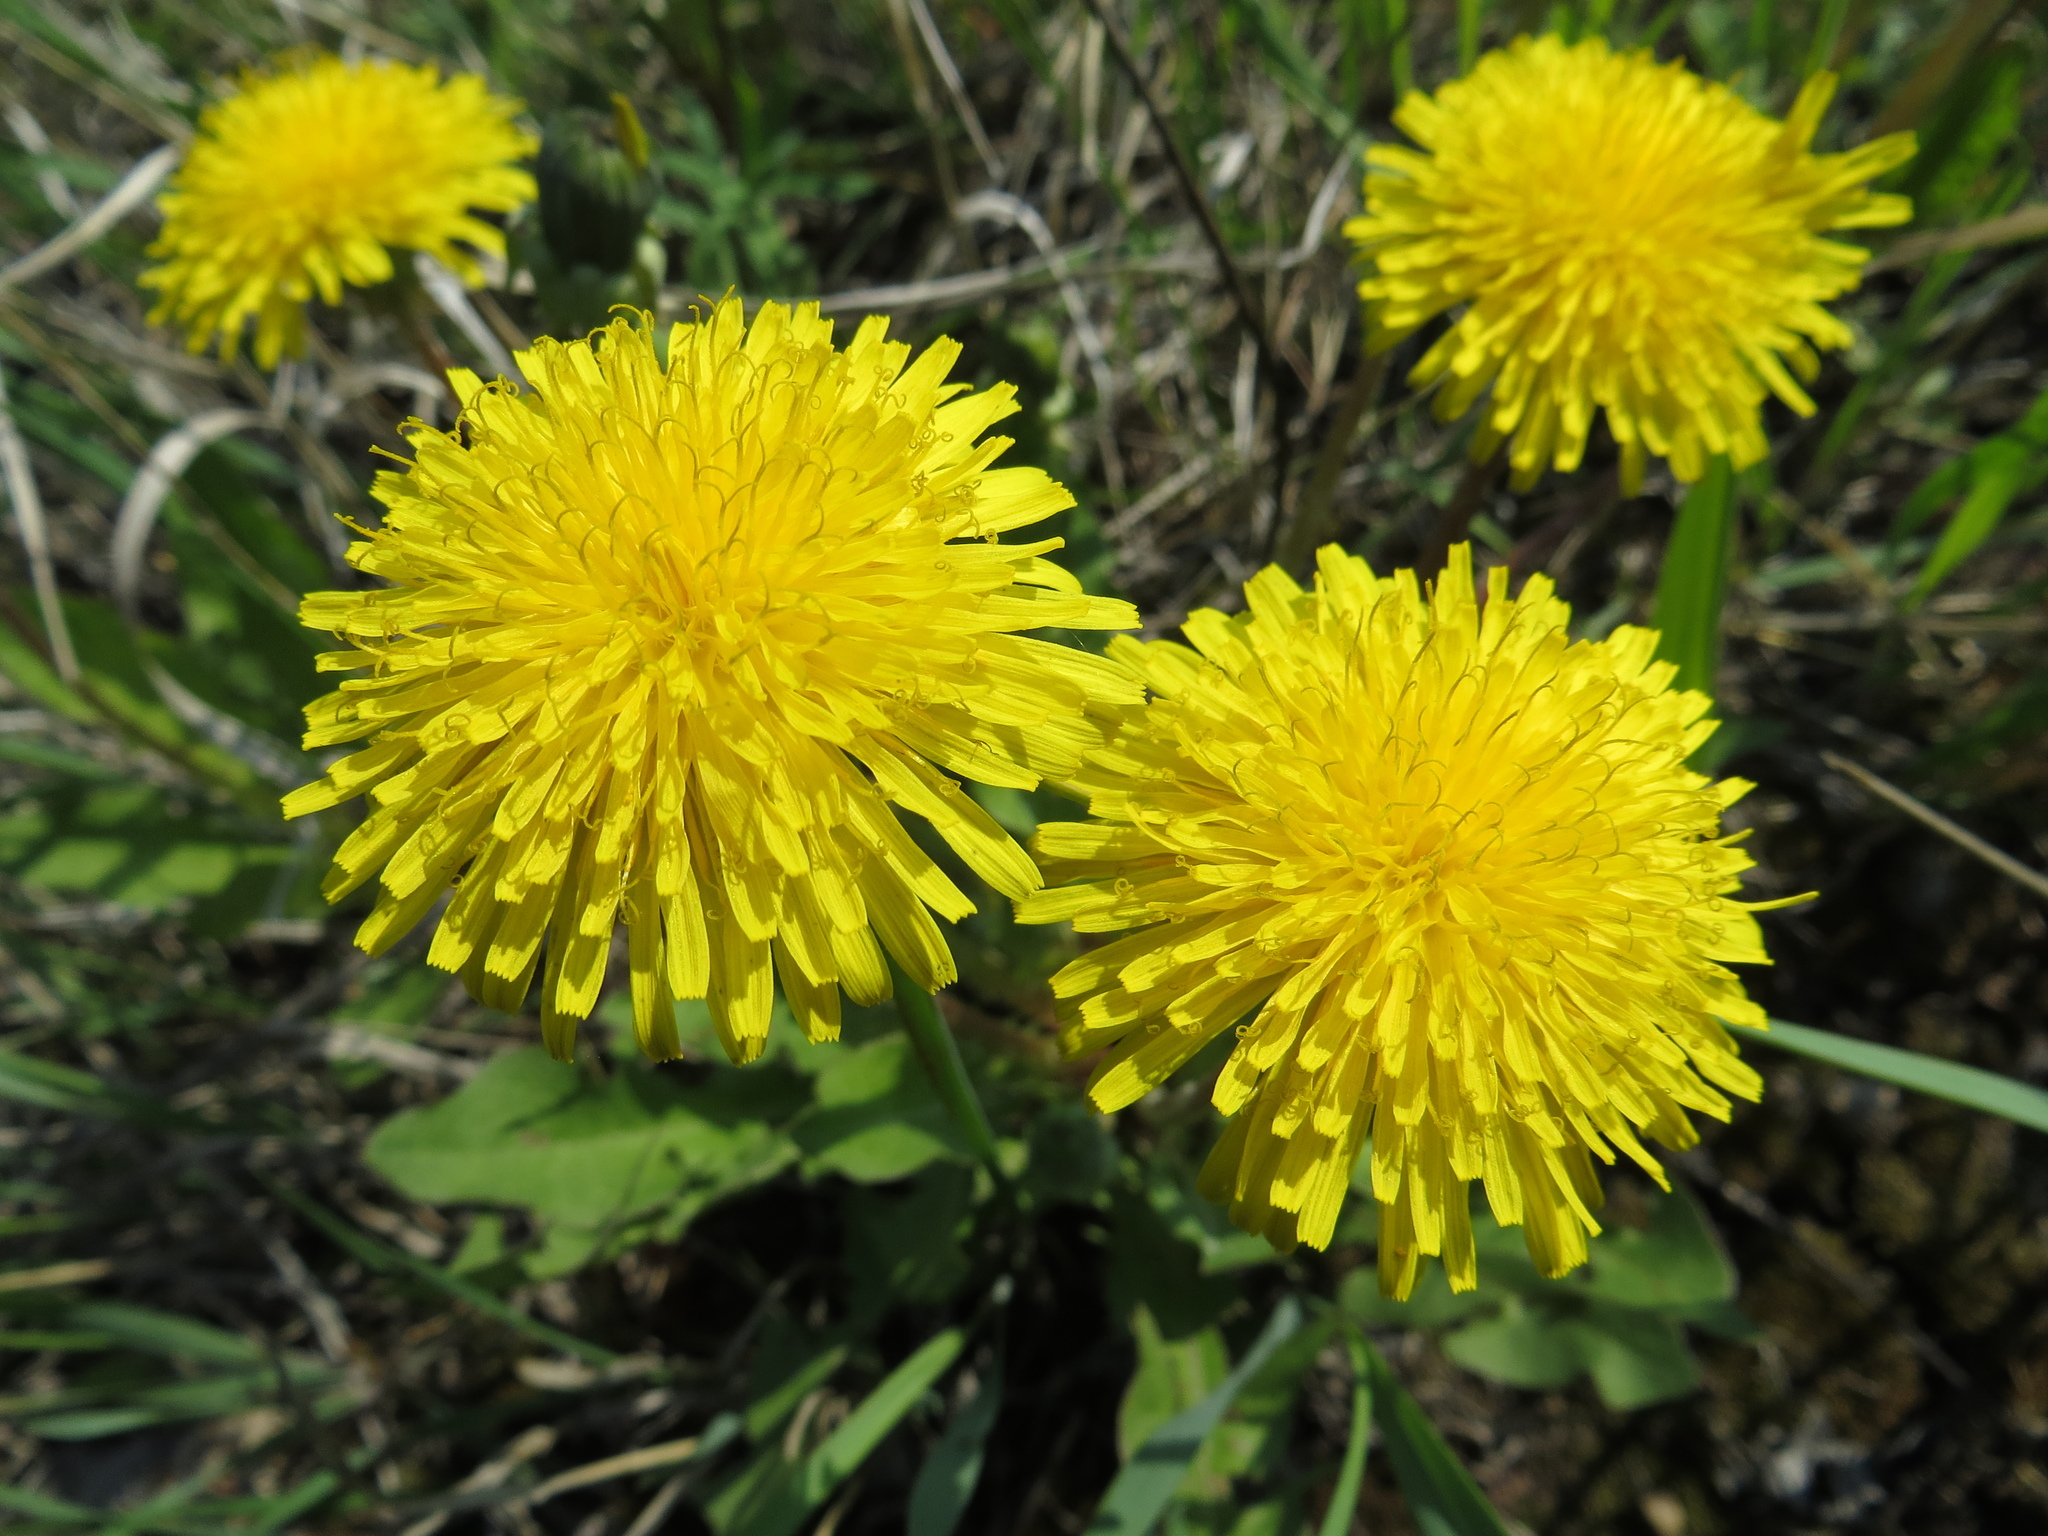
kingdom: Plantae
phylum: Tracheophyta
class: Magnoliopsida
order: Asterales
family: Asteraceae
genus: Taraxacum
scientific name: Taraxacum officinale
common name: Common dandelion
